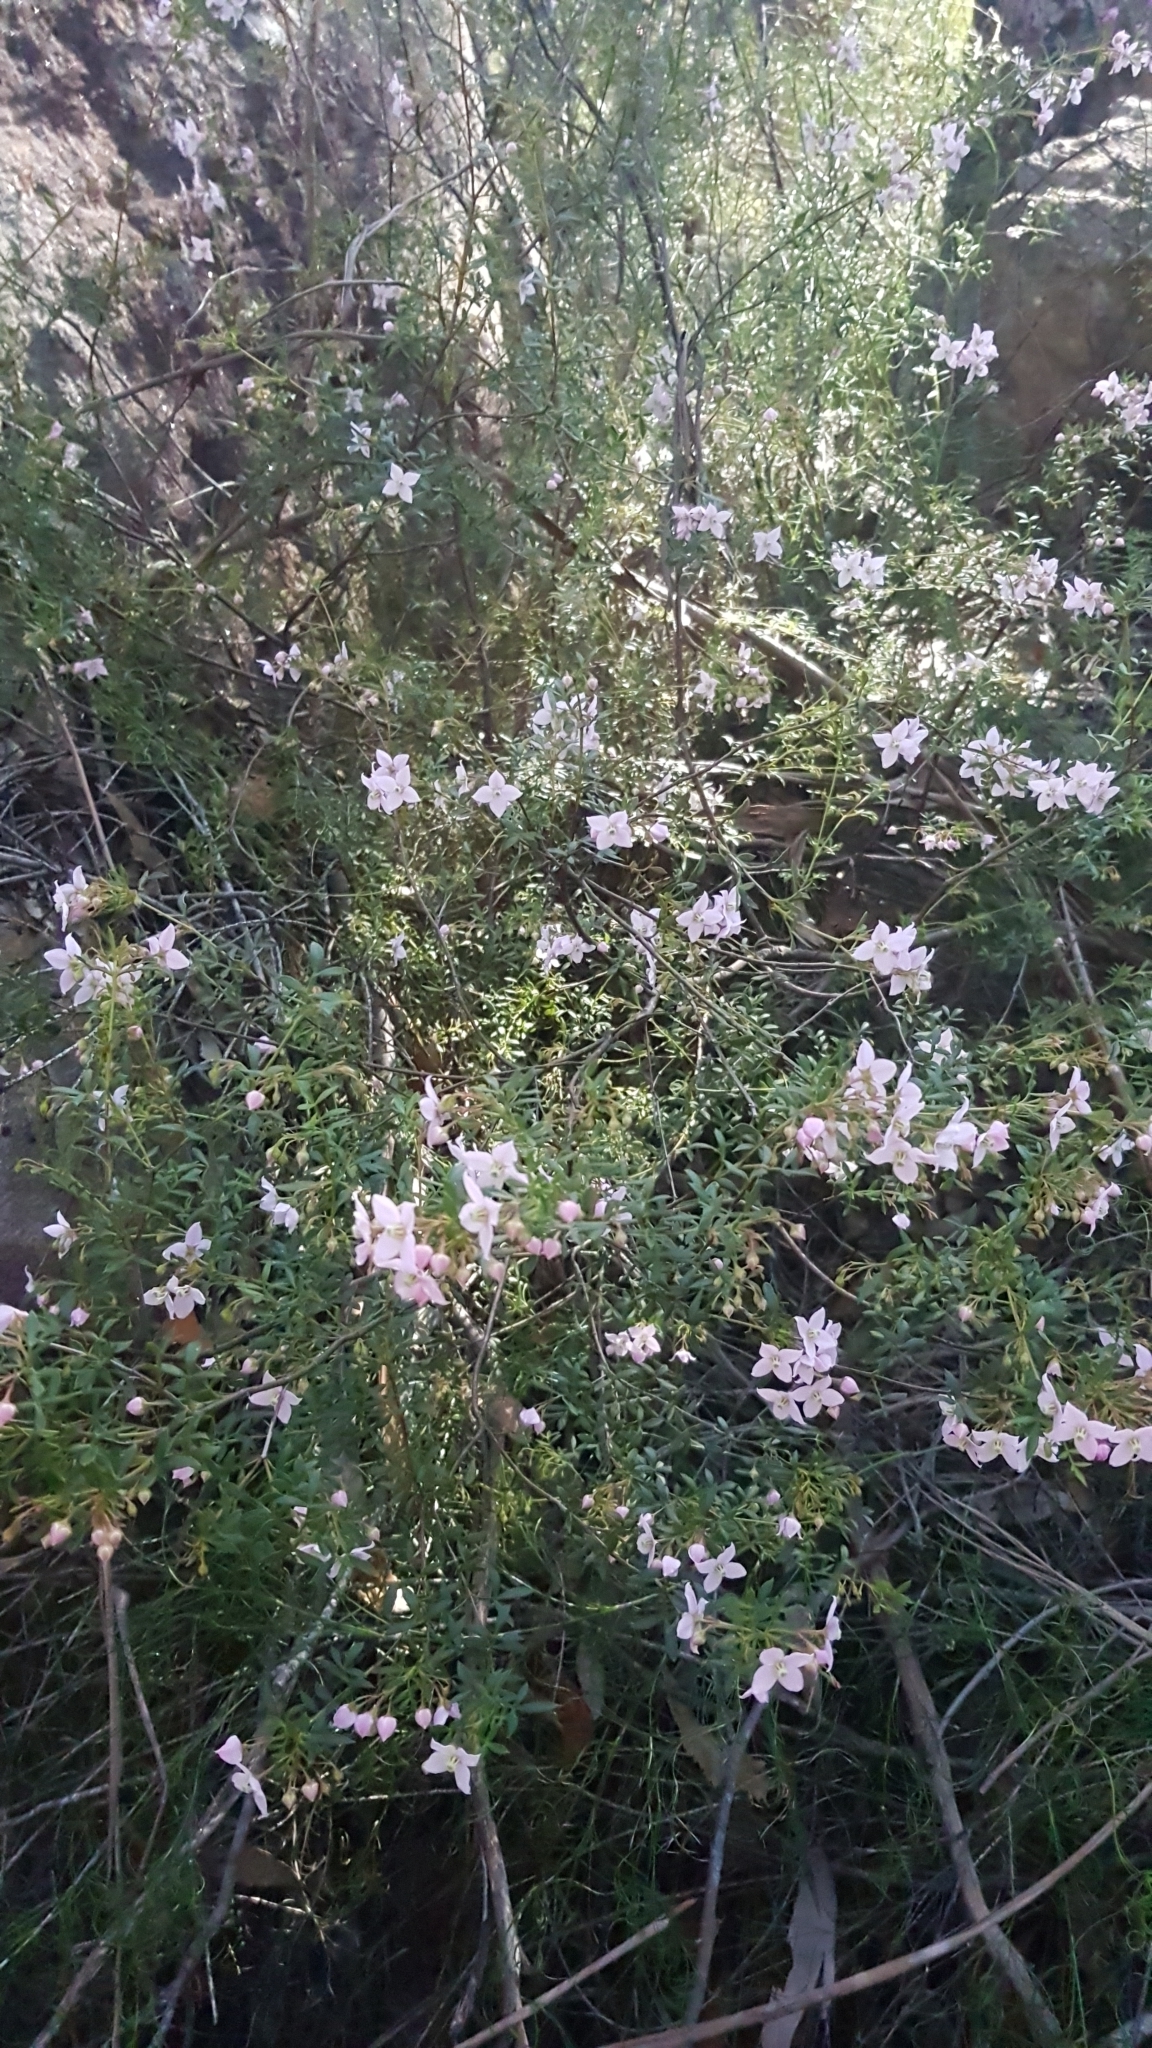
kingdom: Plantae
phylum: Tracheophyta
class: Magnoliopsida
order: Sapindales
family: Rutaceae
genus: Boronia
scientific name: Boronia floribunda
